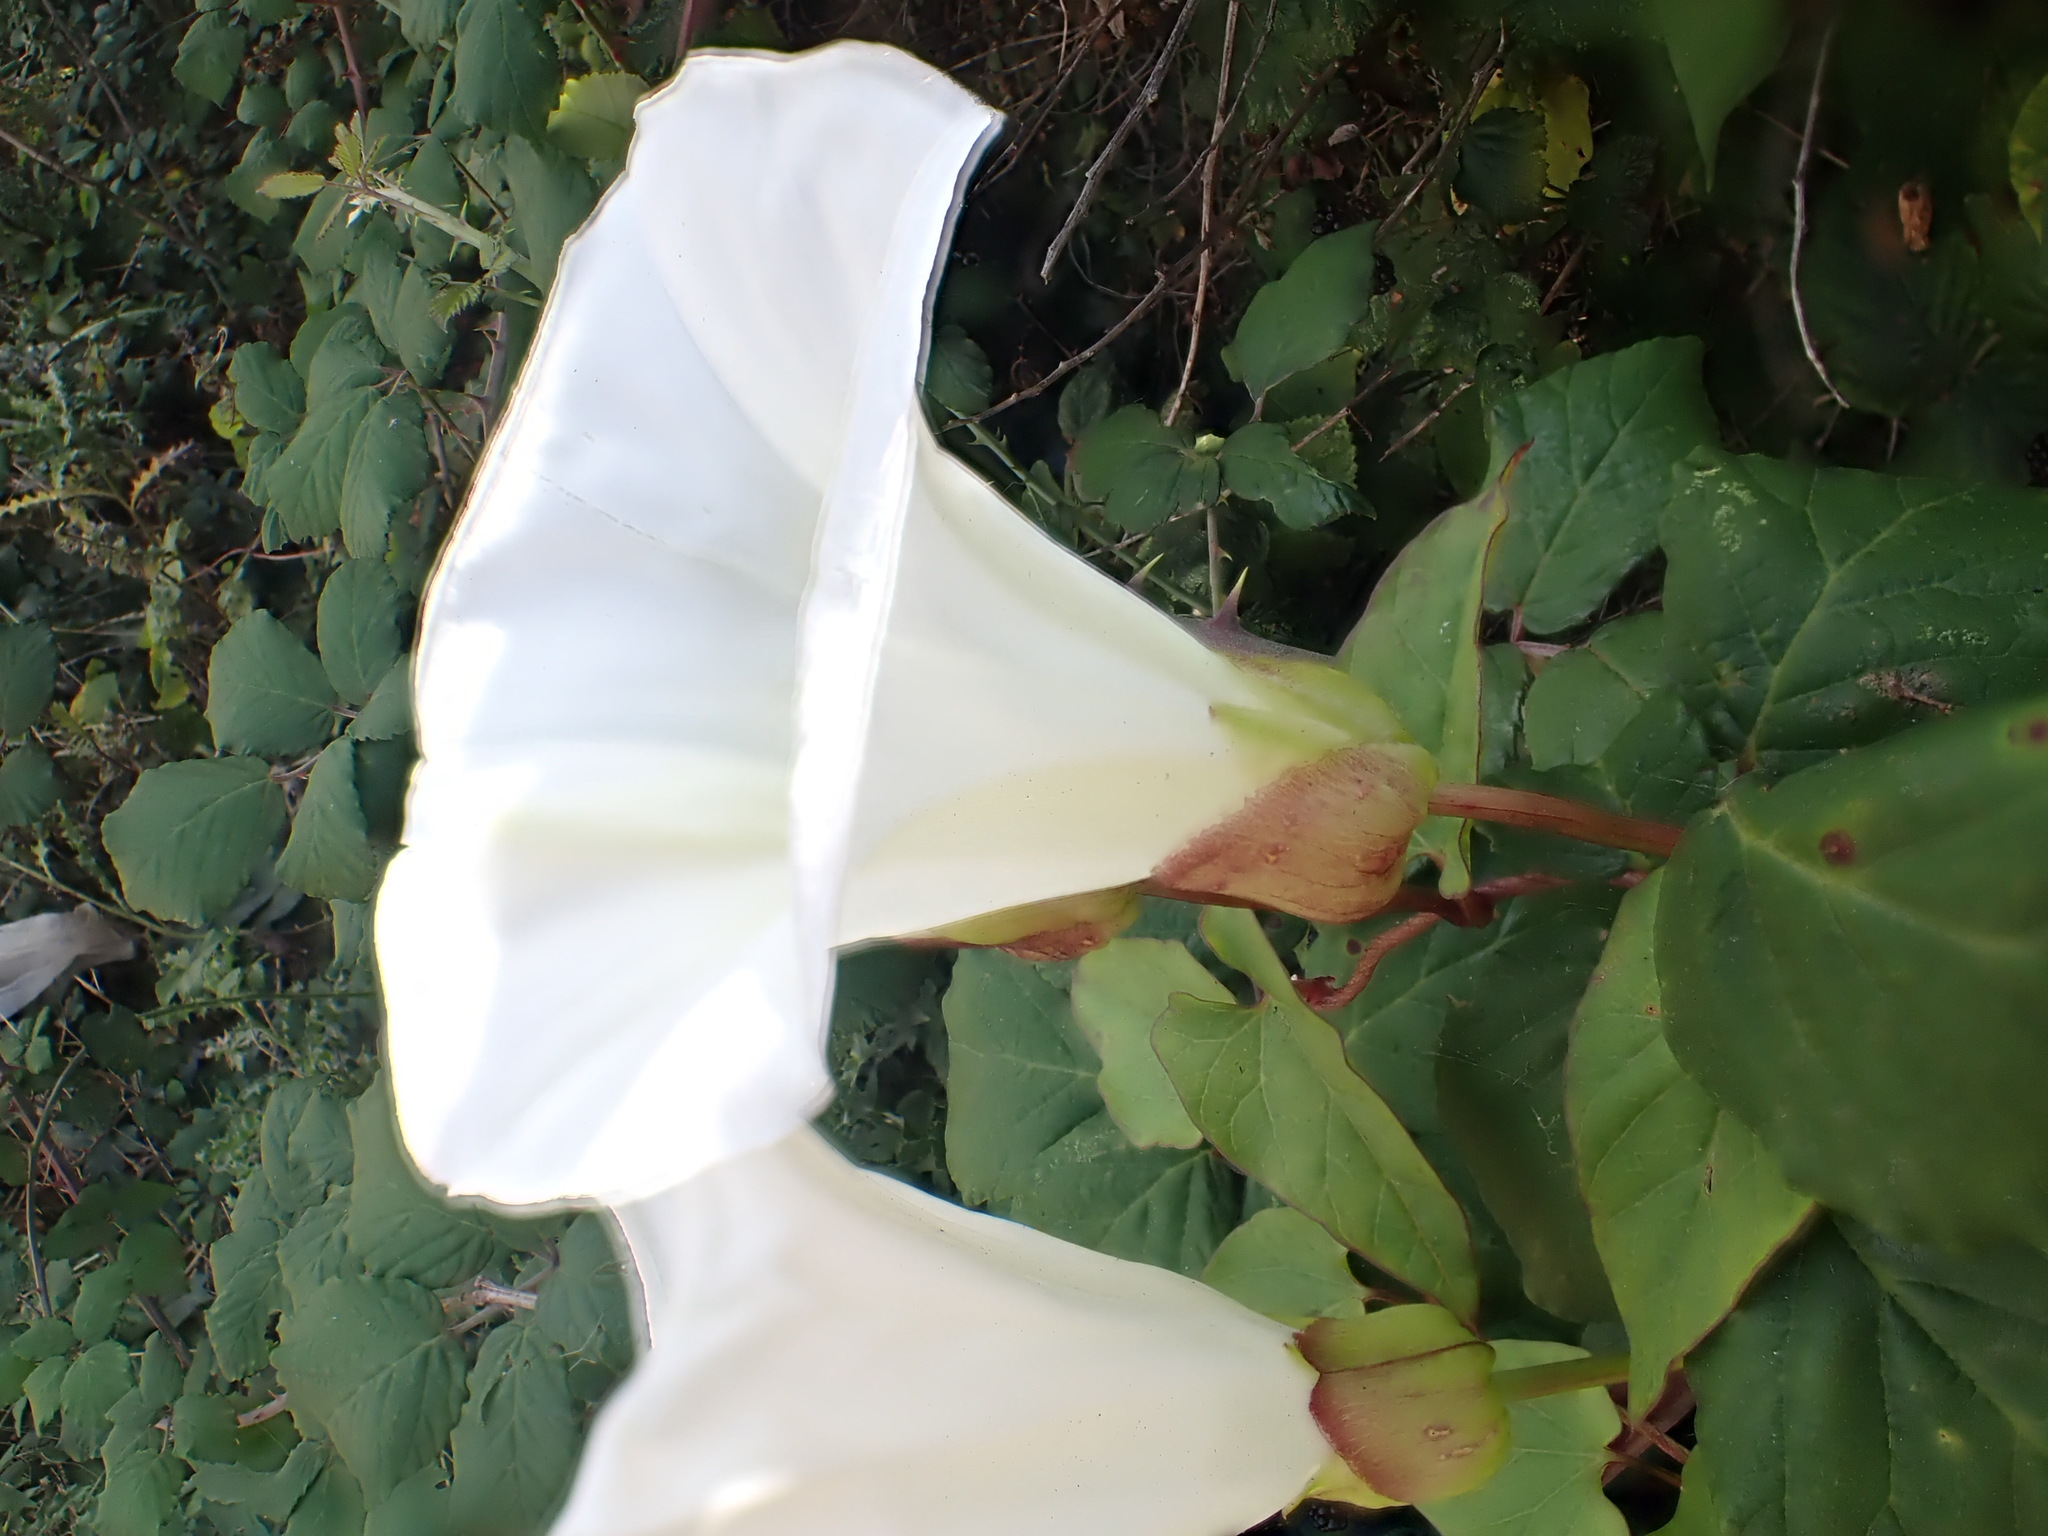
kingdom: Plantae
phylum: Tracheophyta
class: Magnoliopsida
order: Solanales
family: Convolvulaceae
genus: Calystegia
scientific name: Calystegia sepium
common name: Hedge bindweed
